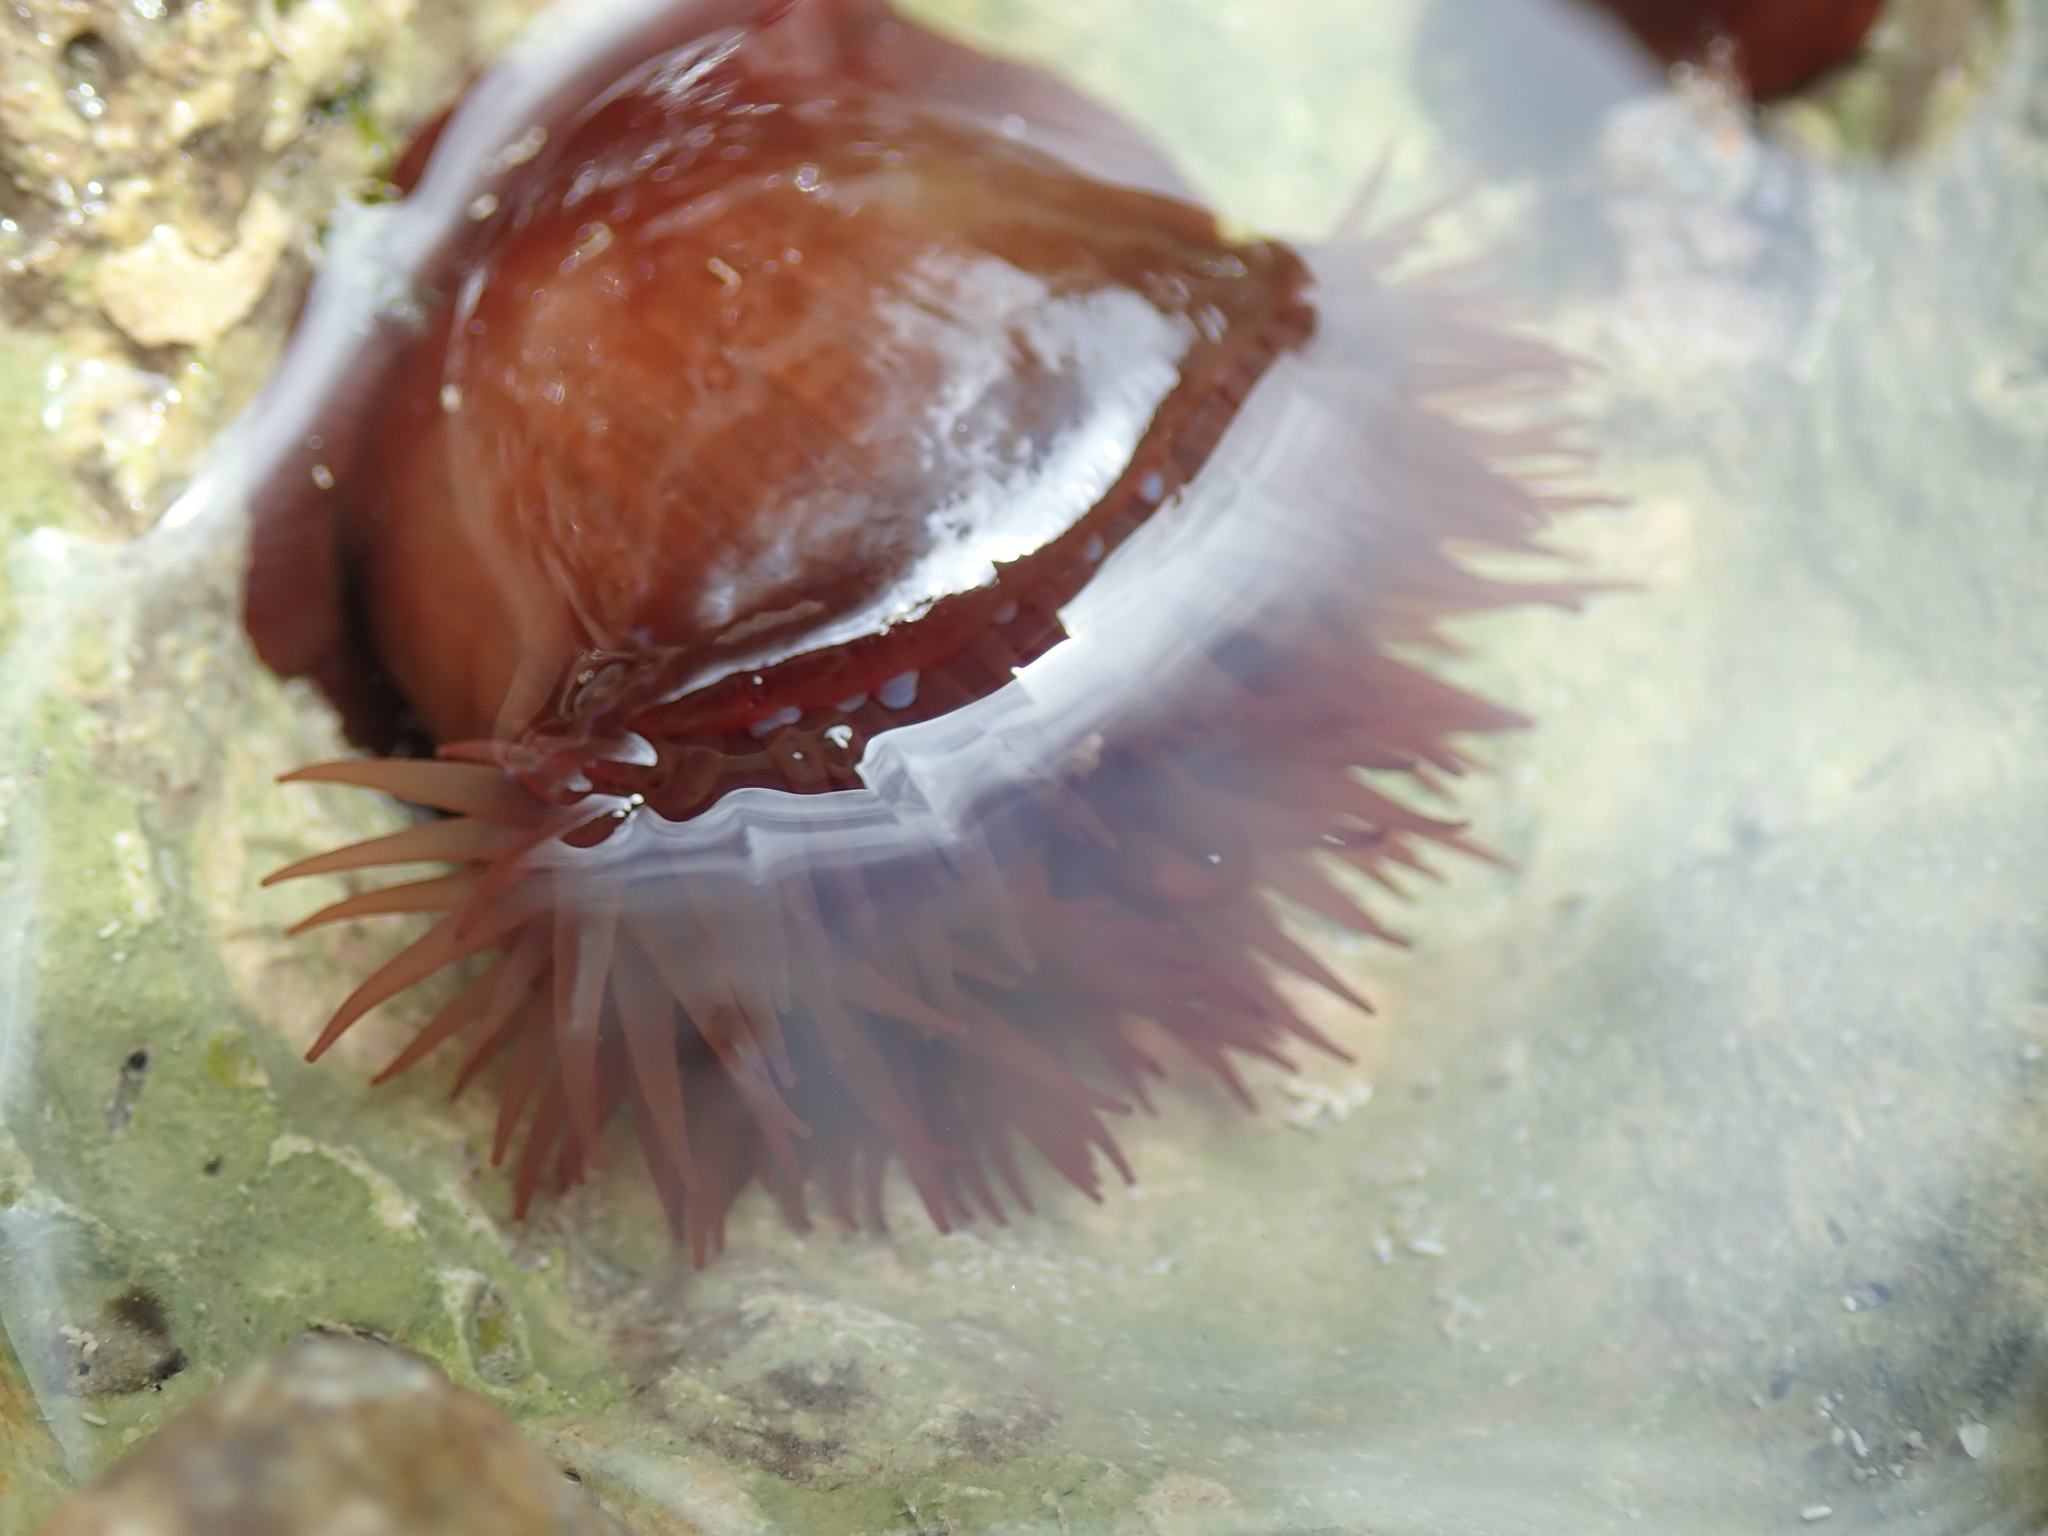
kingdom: Animalia
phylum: Cnidaria
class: Anthozoa
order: Actiniaria
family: Actiniidae
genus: Actinia
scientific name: Actinia equina
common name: Beadlet anemone
